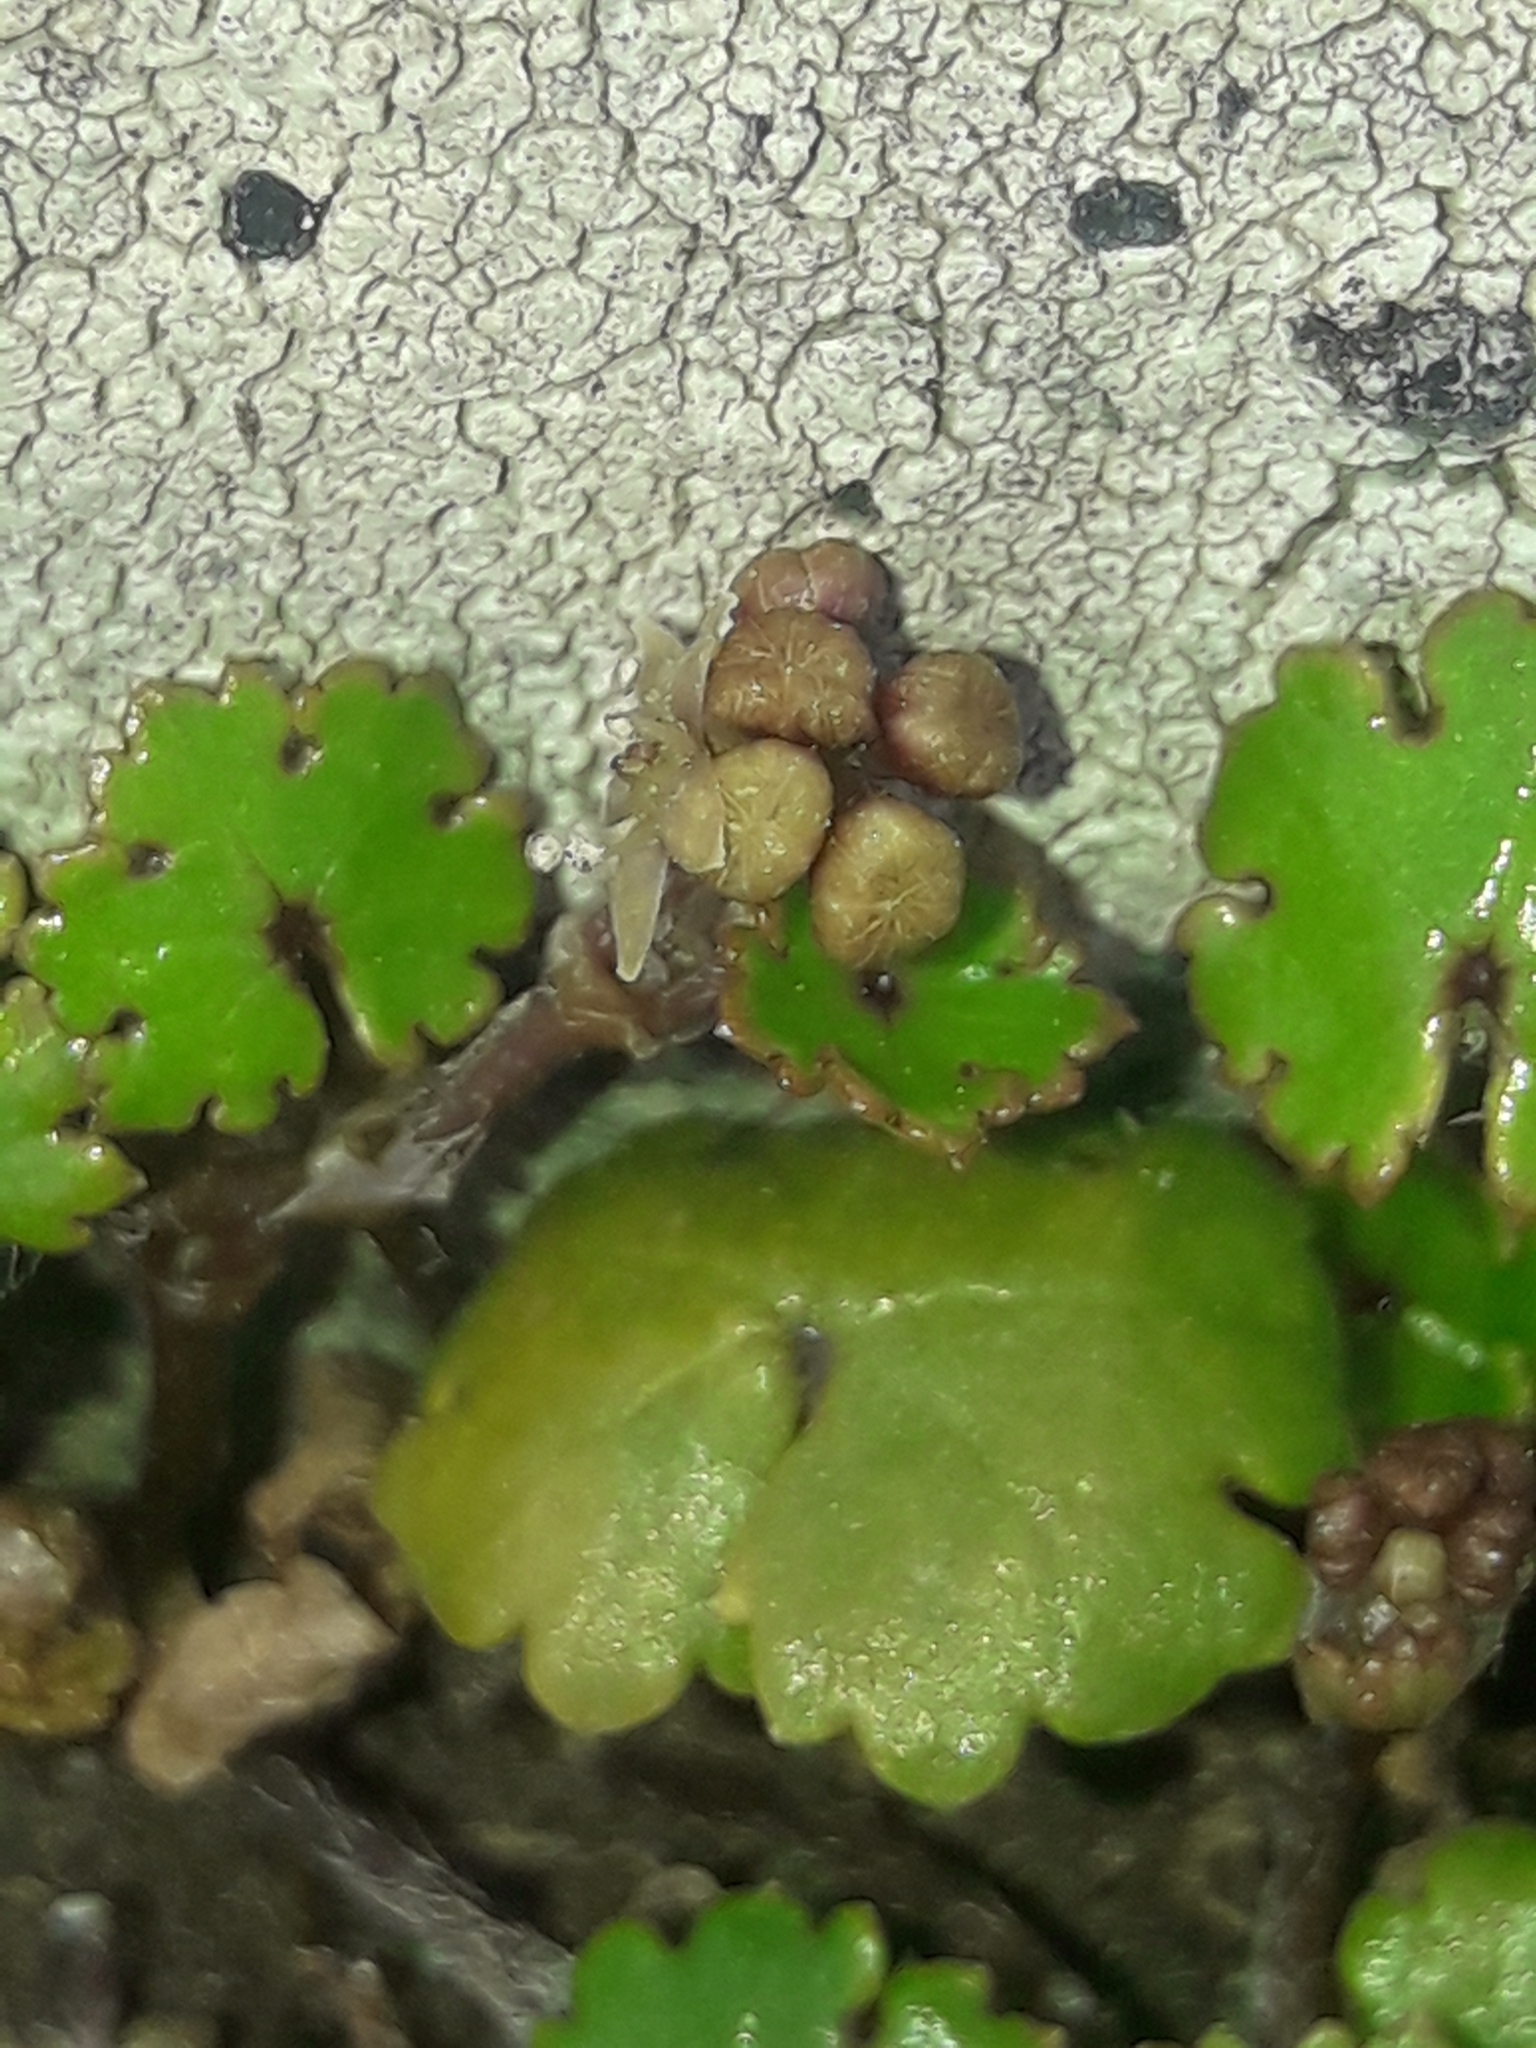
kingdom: Plantae
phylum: Tracheophyta
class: Magnoliopsida
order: Apiales
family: Araliaceae
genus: Hydrocotyle
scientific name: Hydrocotyle novae-zeelandiae
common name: New zealand pennywort
